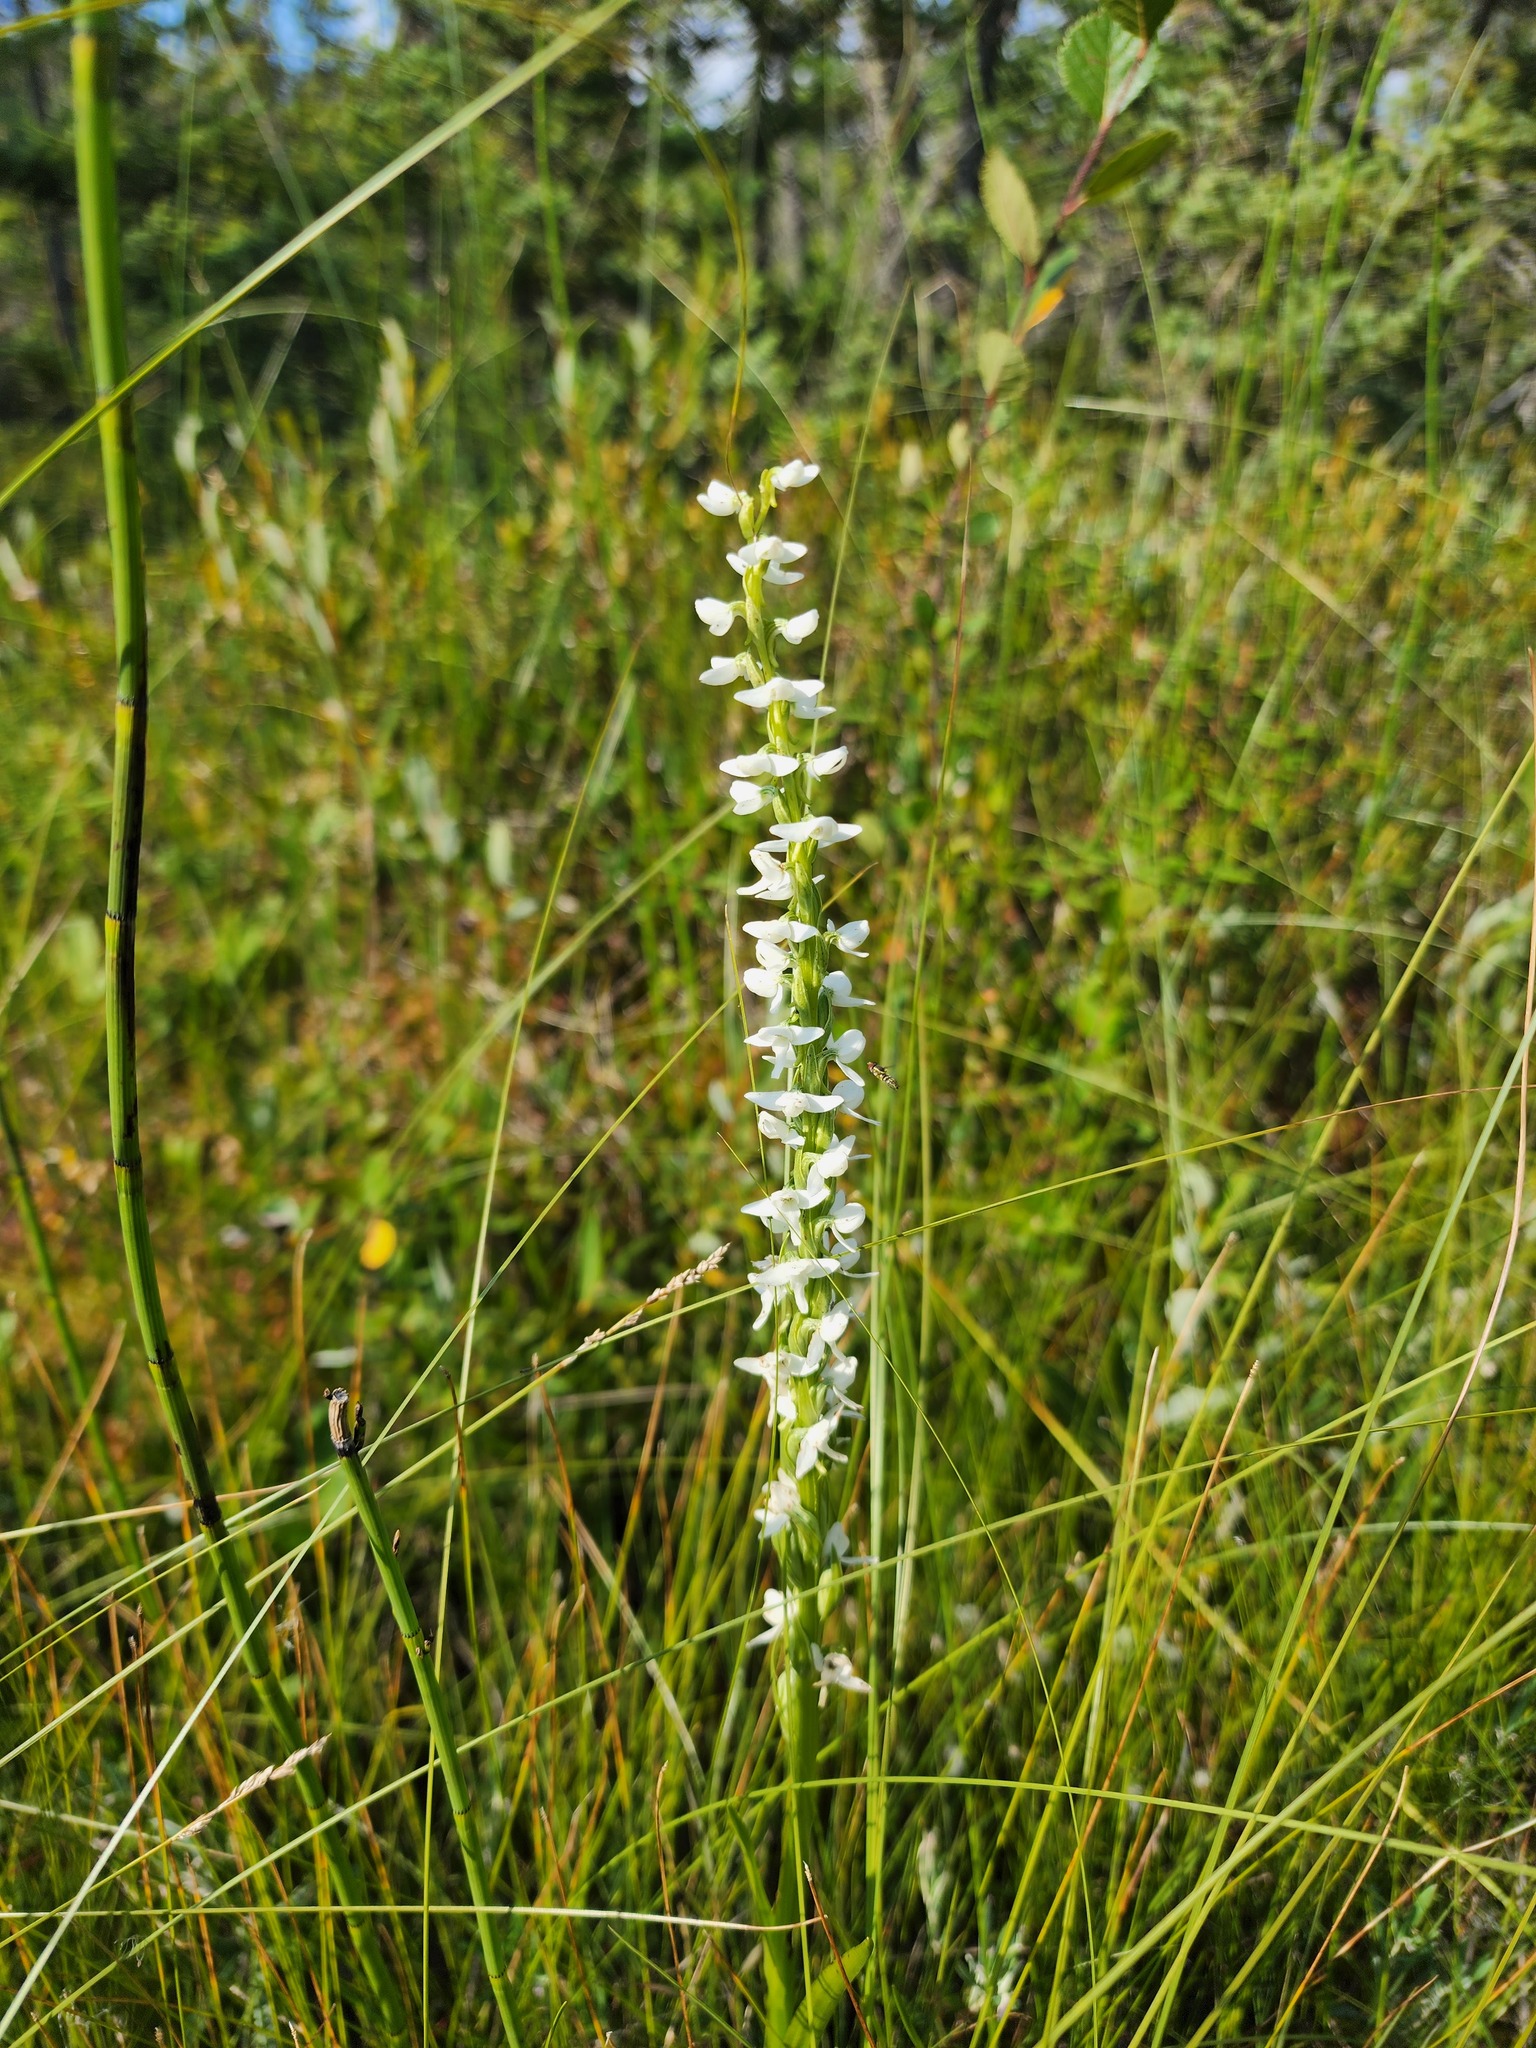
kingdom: Plantae
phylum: Tracheophyta
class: Liliopsida
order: Asparagales
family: Orchidaceae
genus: Platanthera
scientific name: Platanthera dilatata
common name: Bog candles
